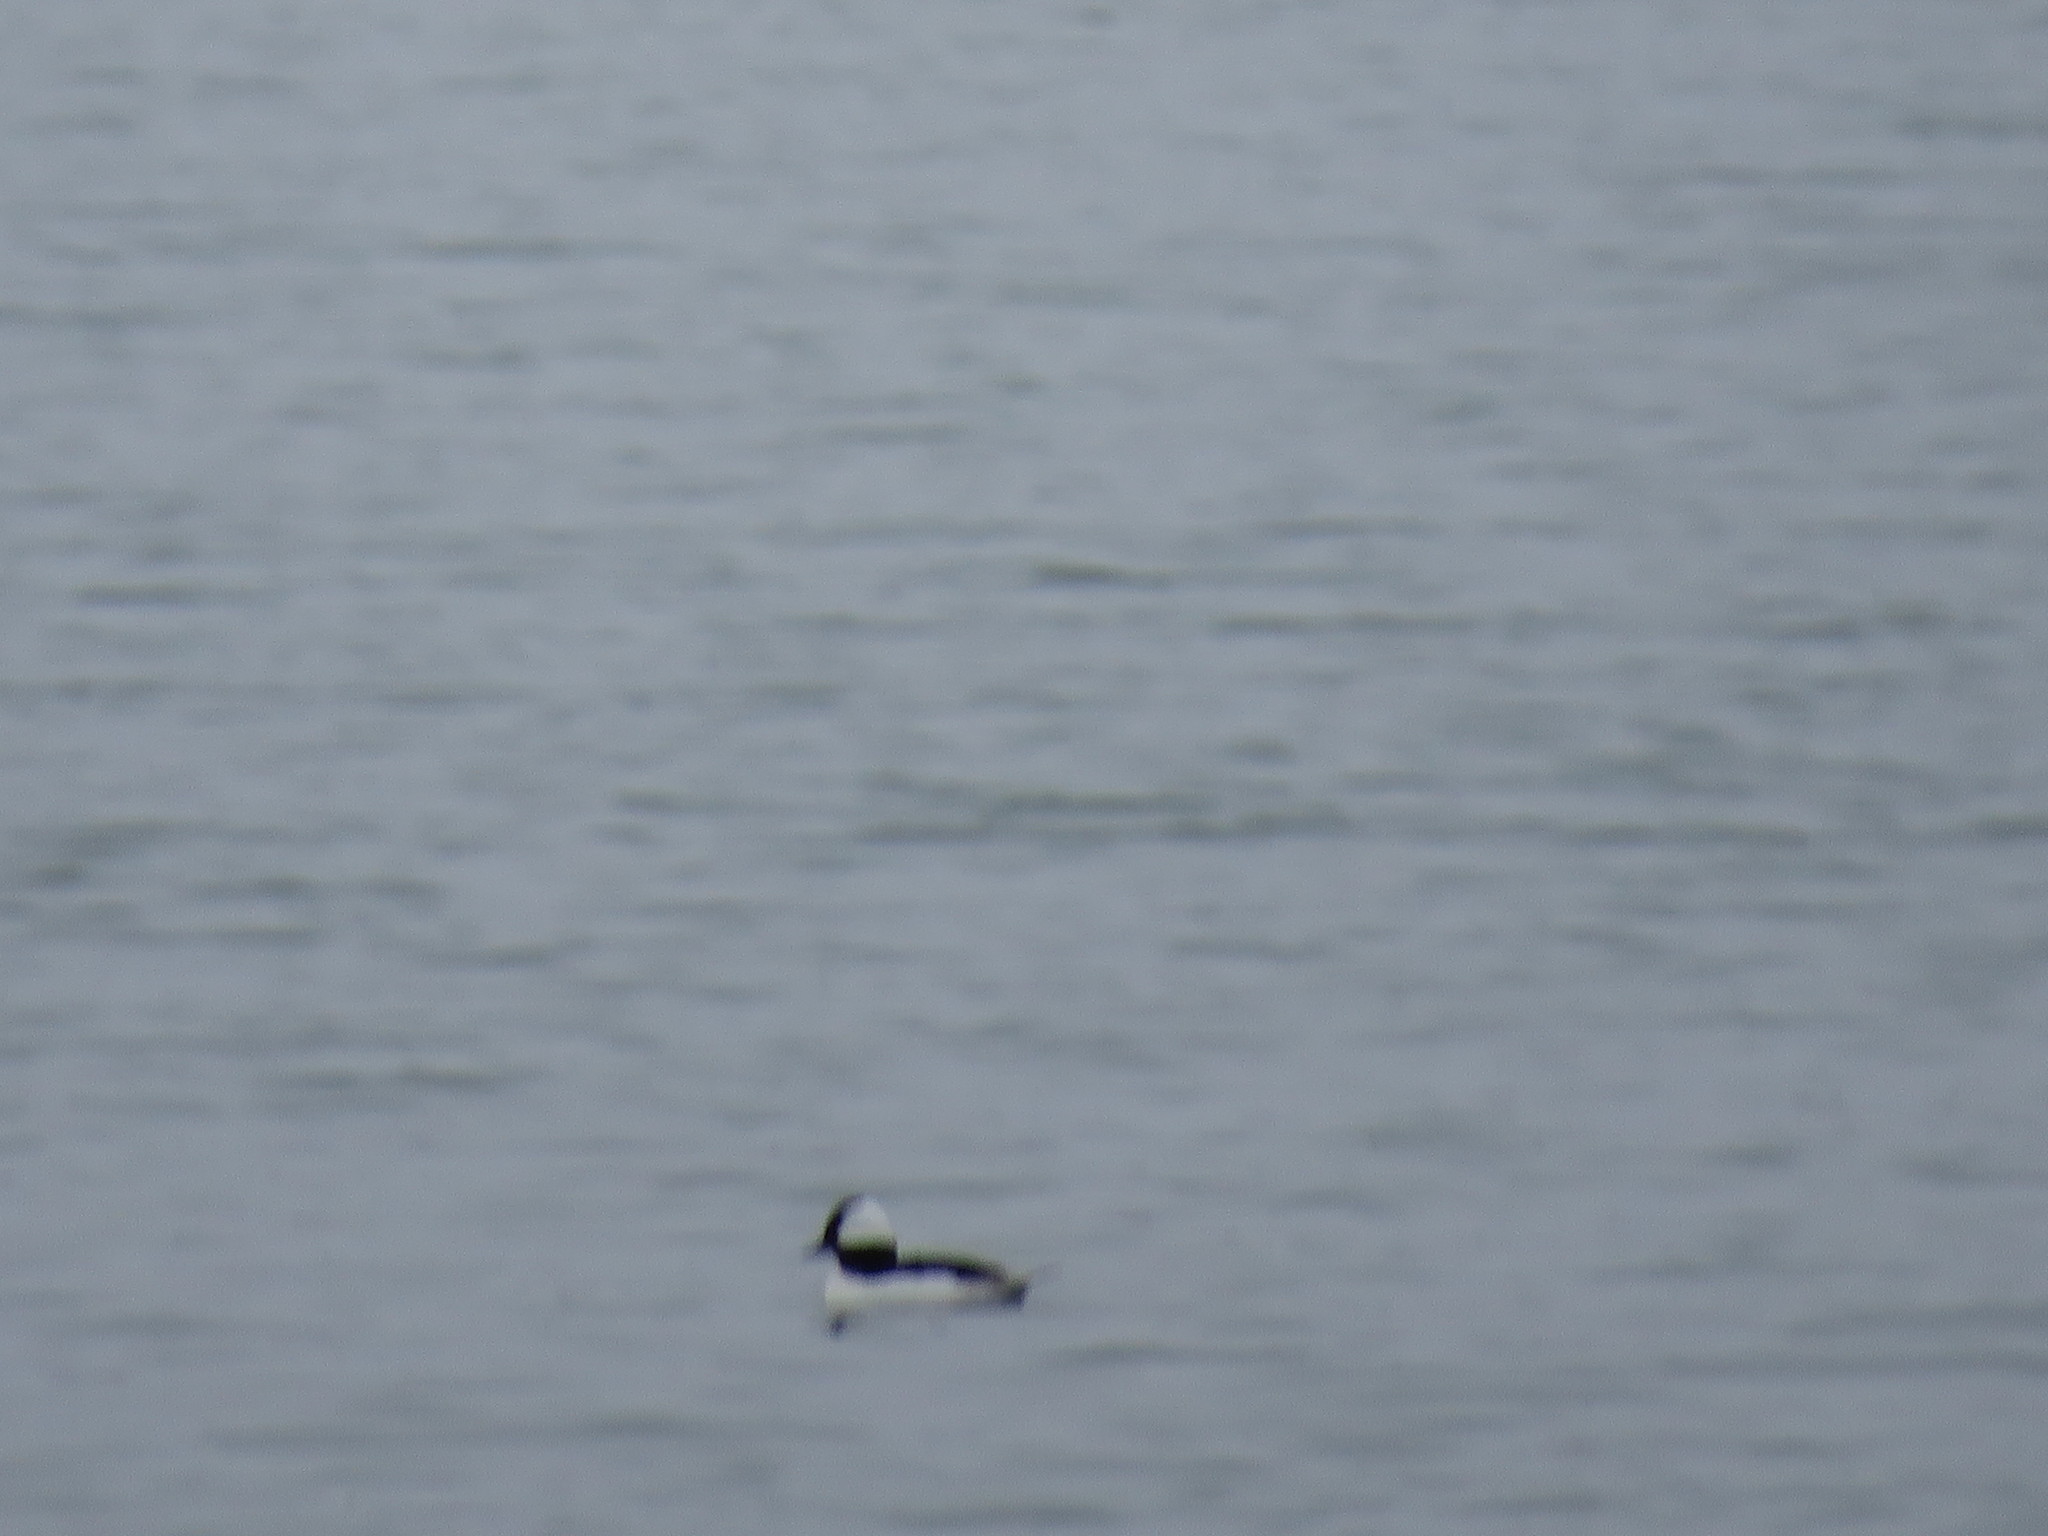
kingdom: Animalia
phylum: Chordata
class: Aves
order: Anseriformes
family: Anatidae
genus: Bucephala
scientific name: Bucephala albeola
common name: Bufflehead
